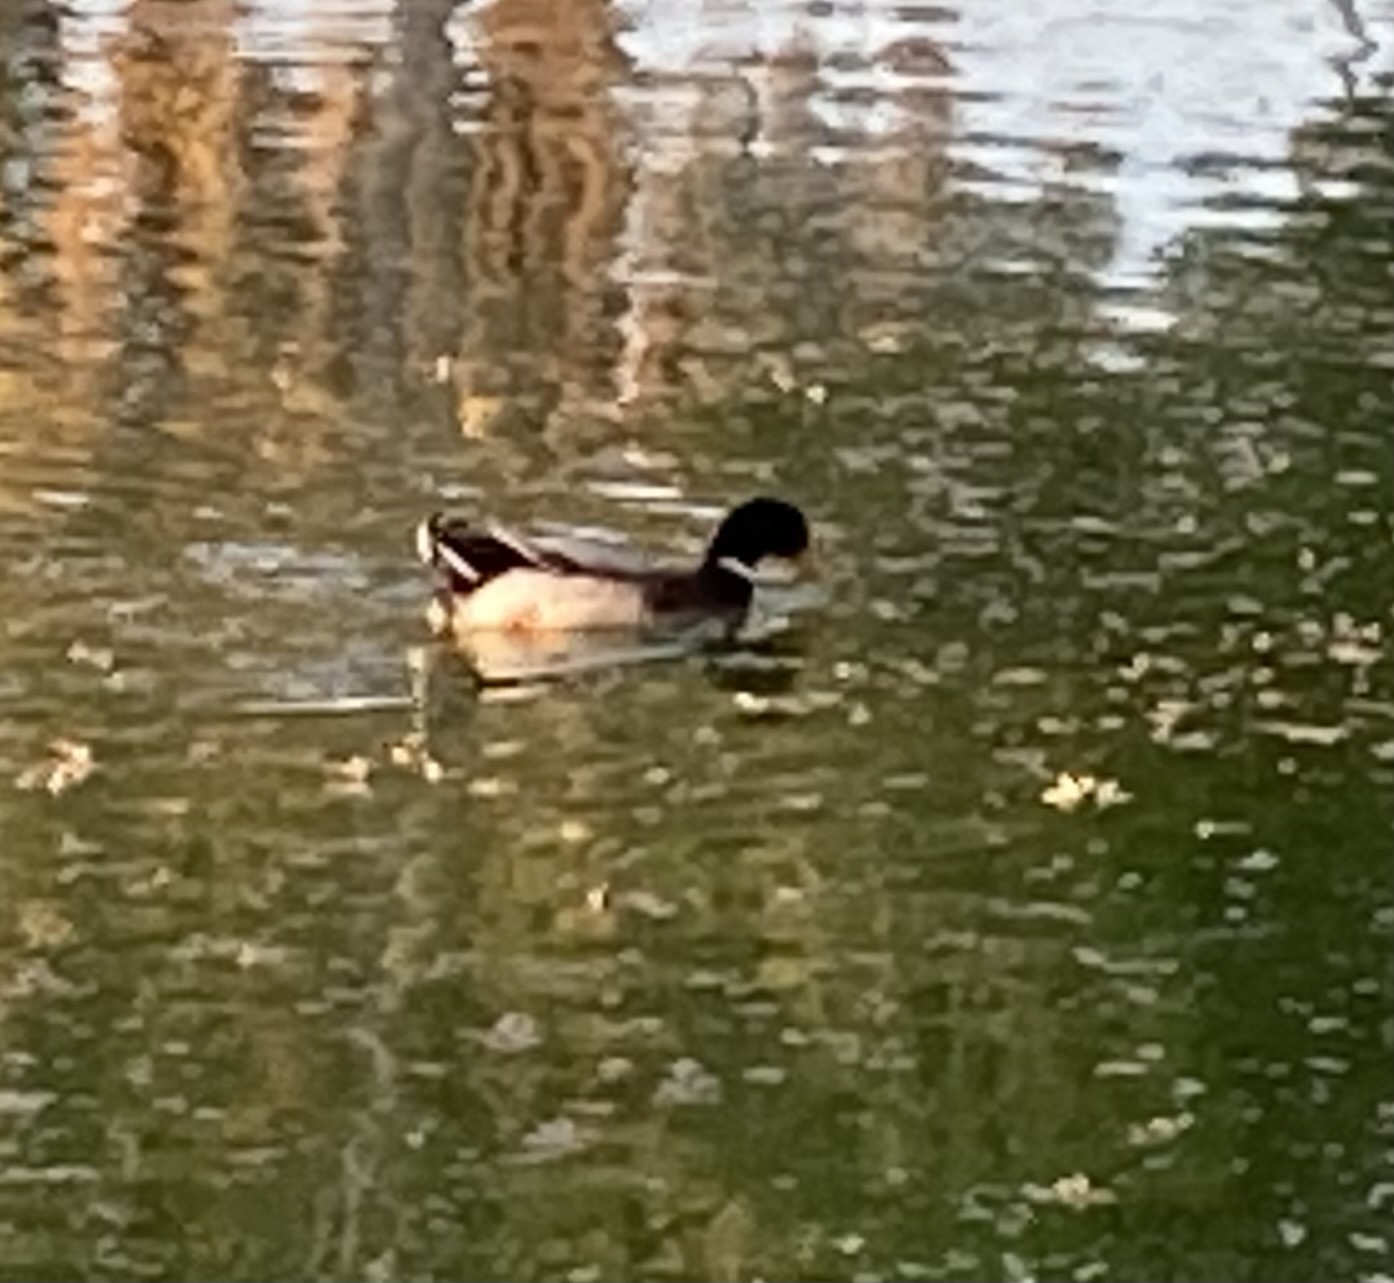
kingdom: Animalia
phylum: Chordata
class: Aves
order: Anseriformes
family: Anatidae
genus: Anas
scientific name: Anas platyrhynchos
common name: Mallard
